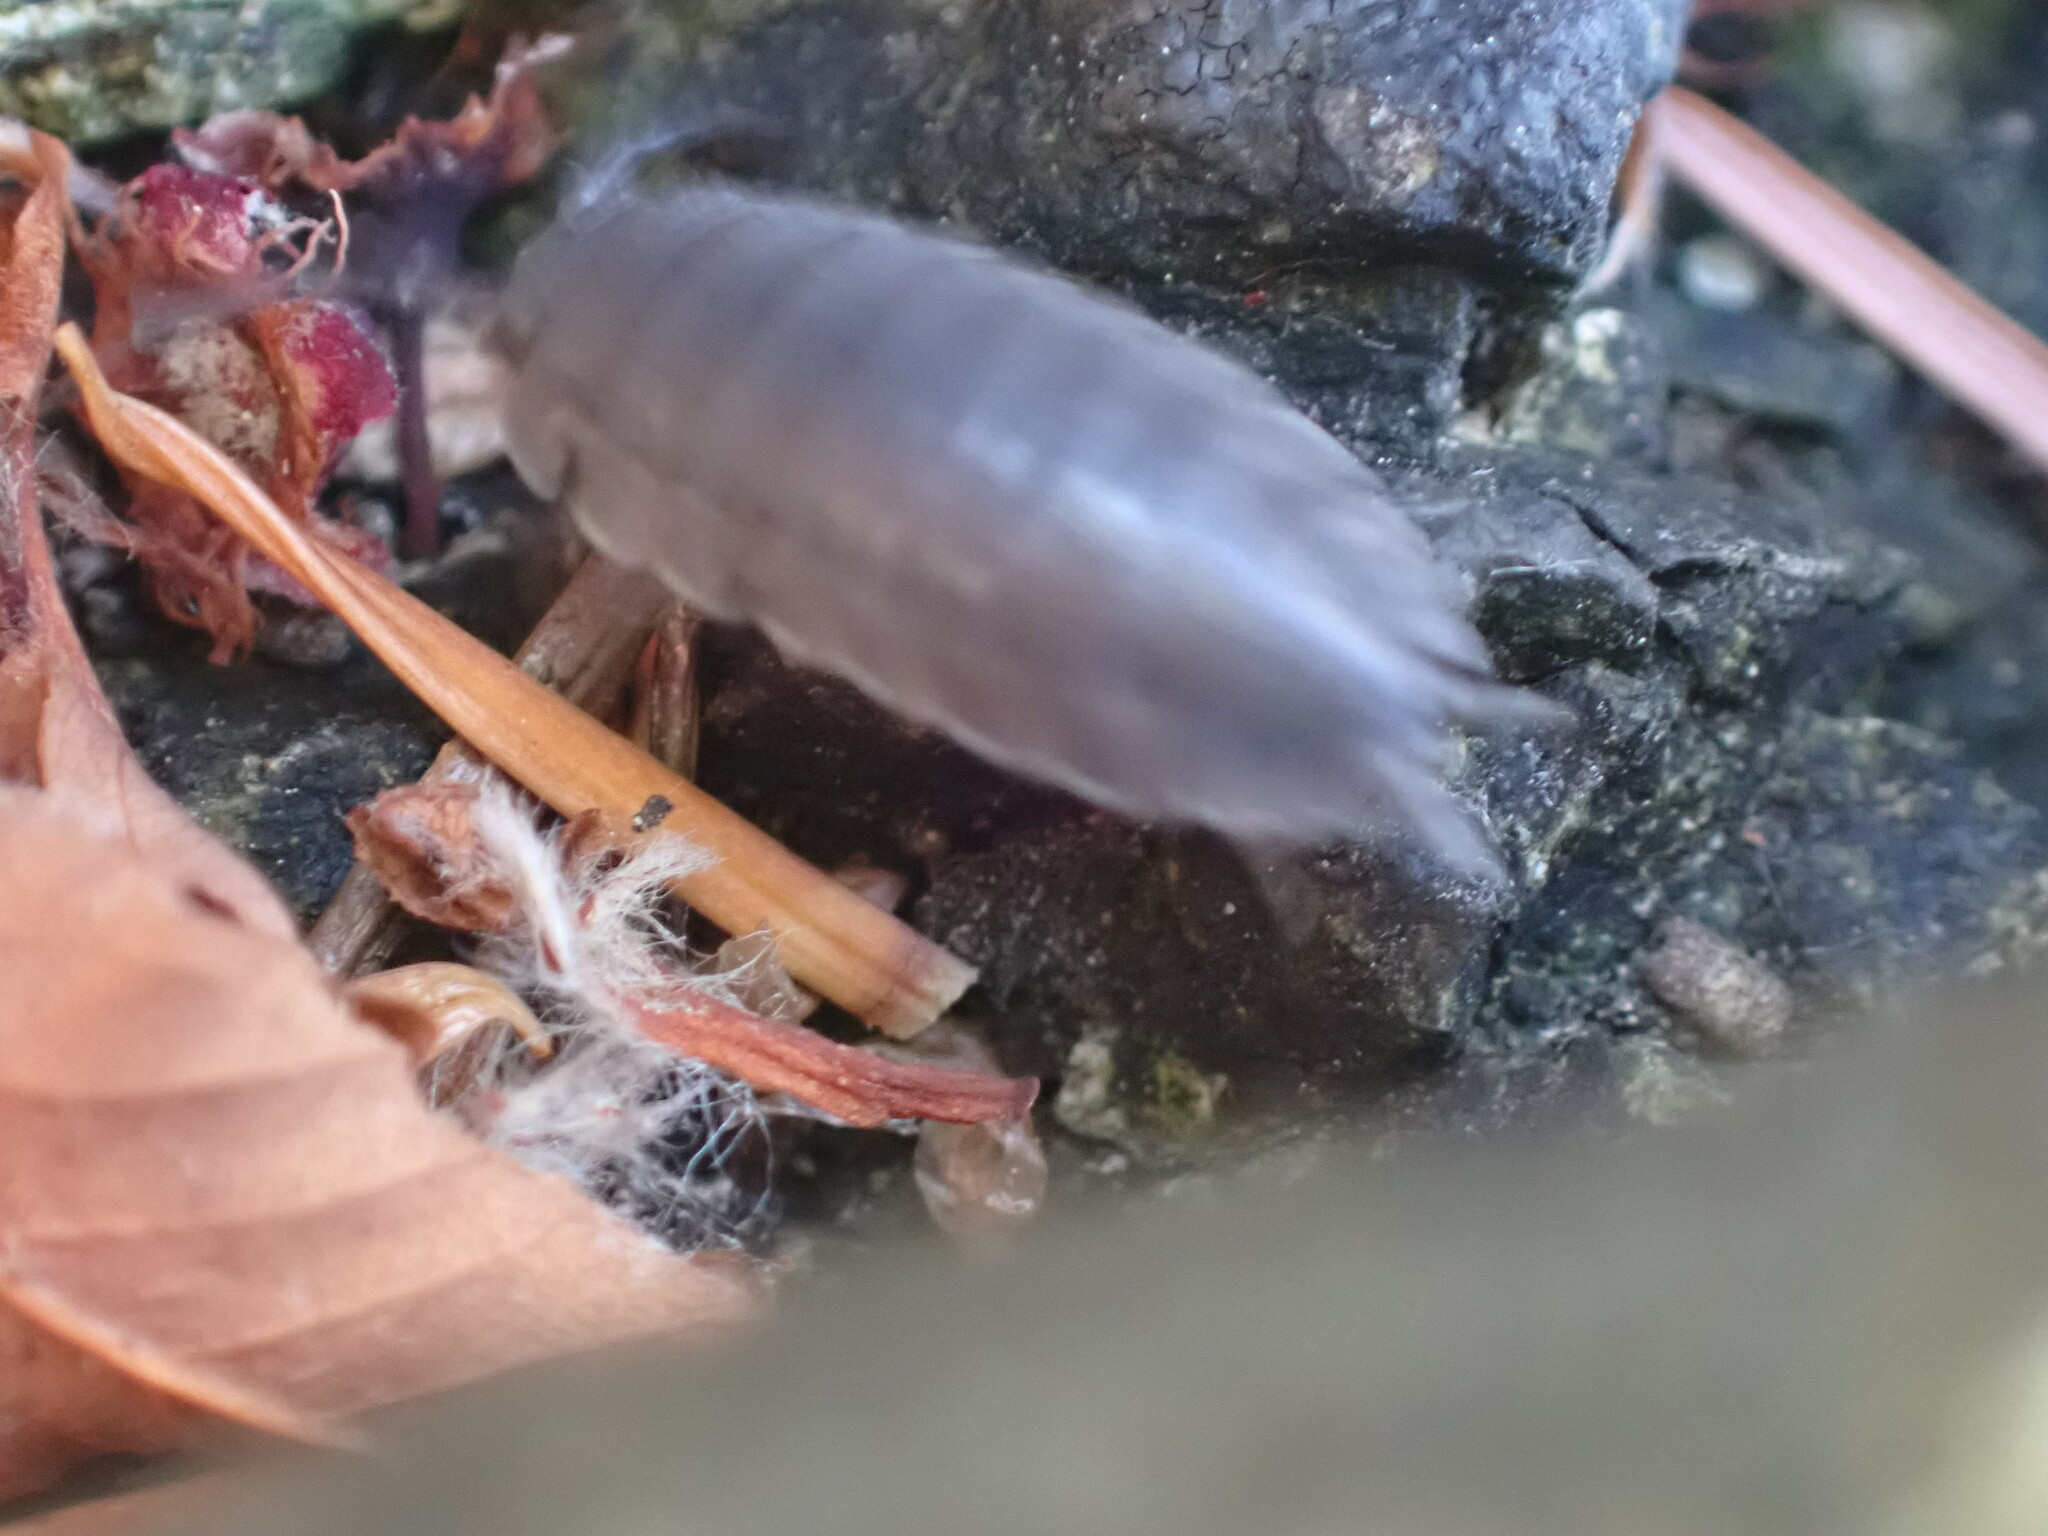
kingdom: Animalia
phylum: Arthropoda
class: Malacostraca
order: Isopoda
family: Porcellionidae
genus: Porcellio
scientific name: Porcellio scaber
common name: Common rough woodlouse
